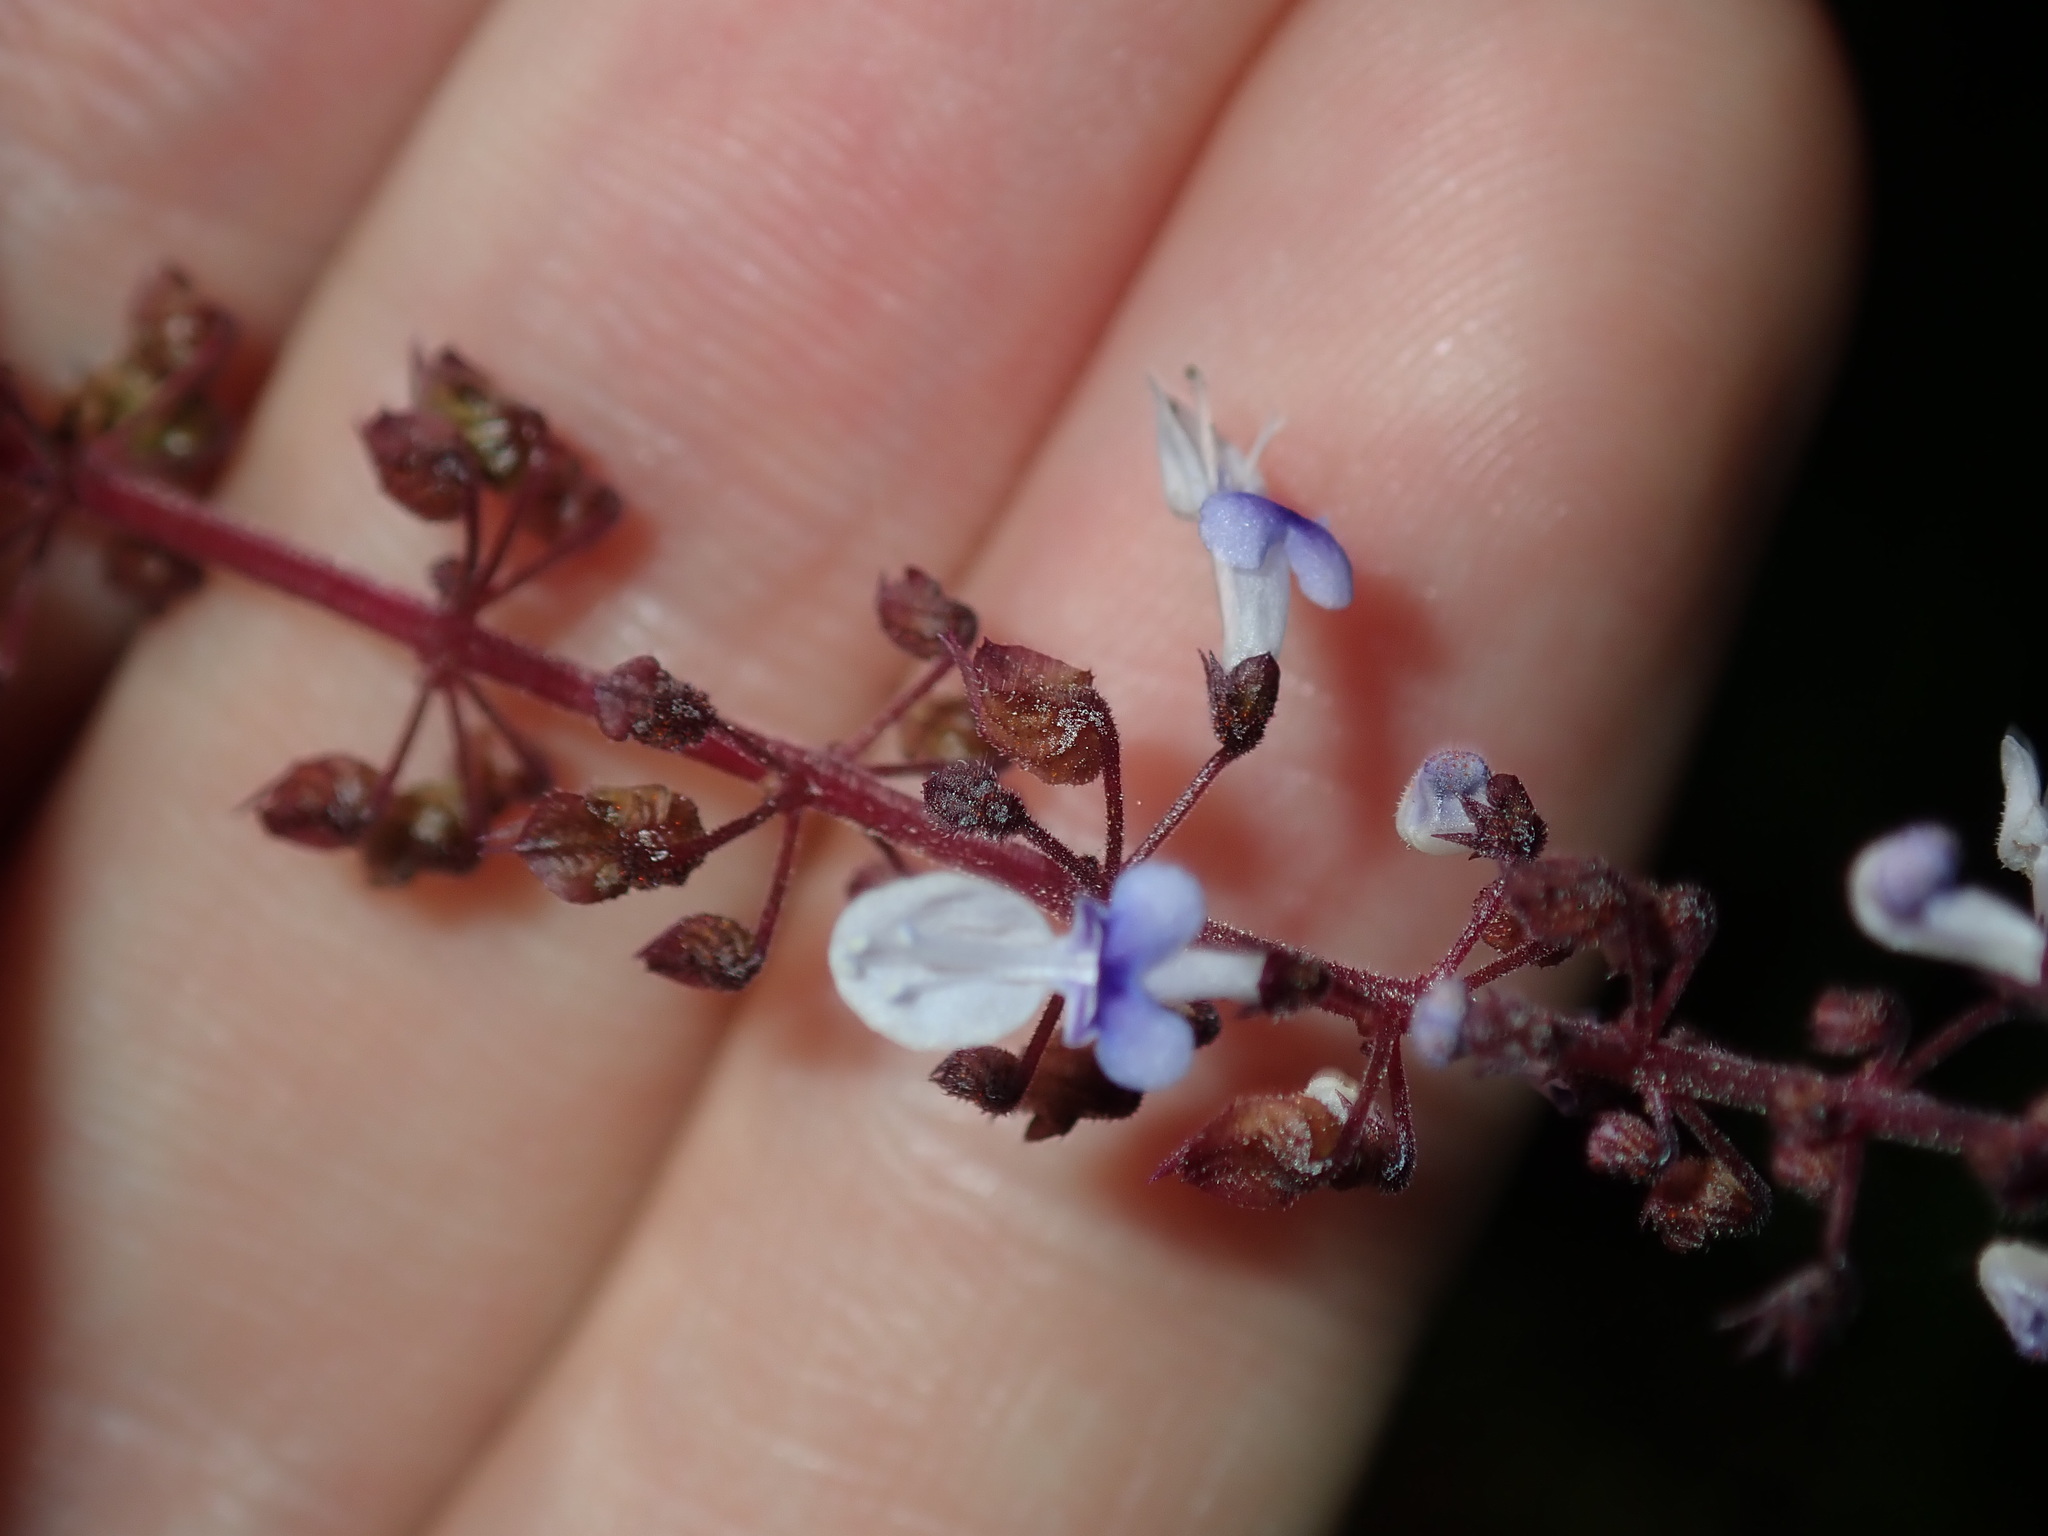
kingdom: Plantae
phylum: Tracheophyta
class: Magnoliopsida
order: Lamiales
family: Lamiaceae
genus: Coleus
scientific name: Coleus australis
